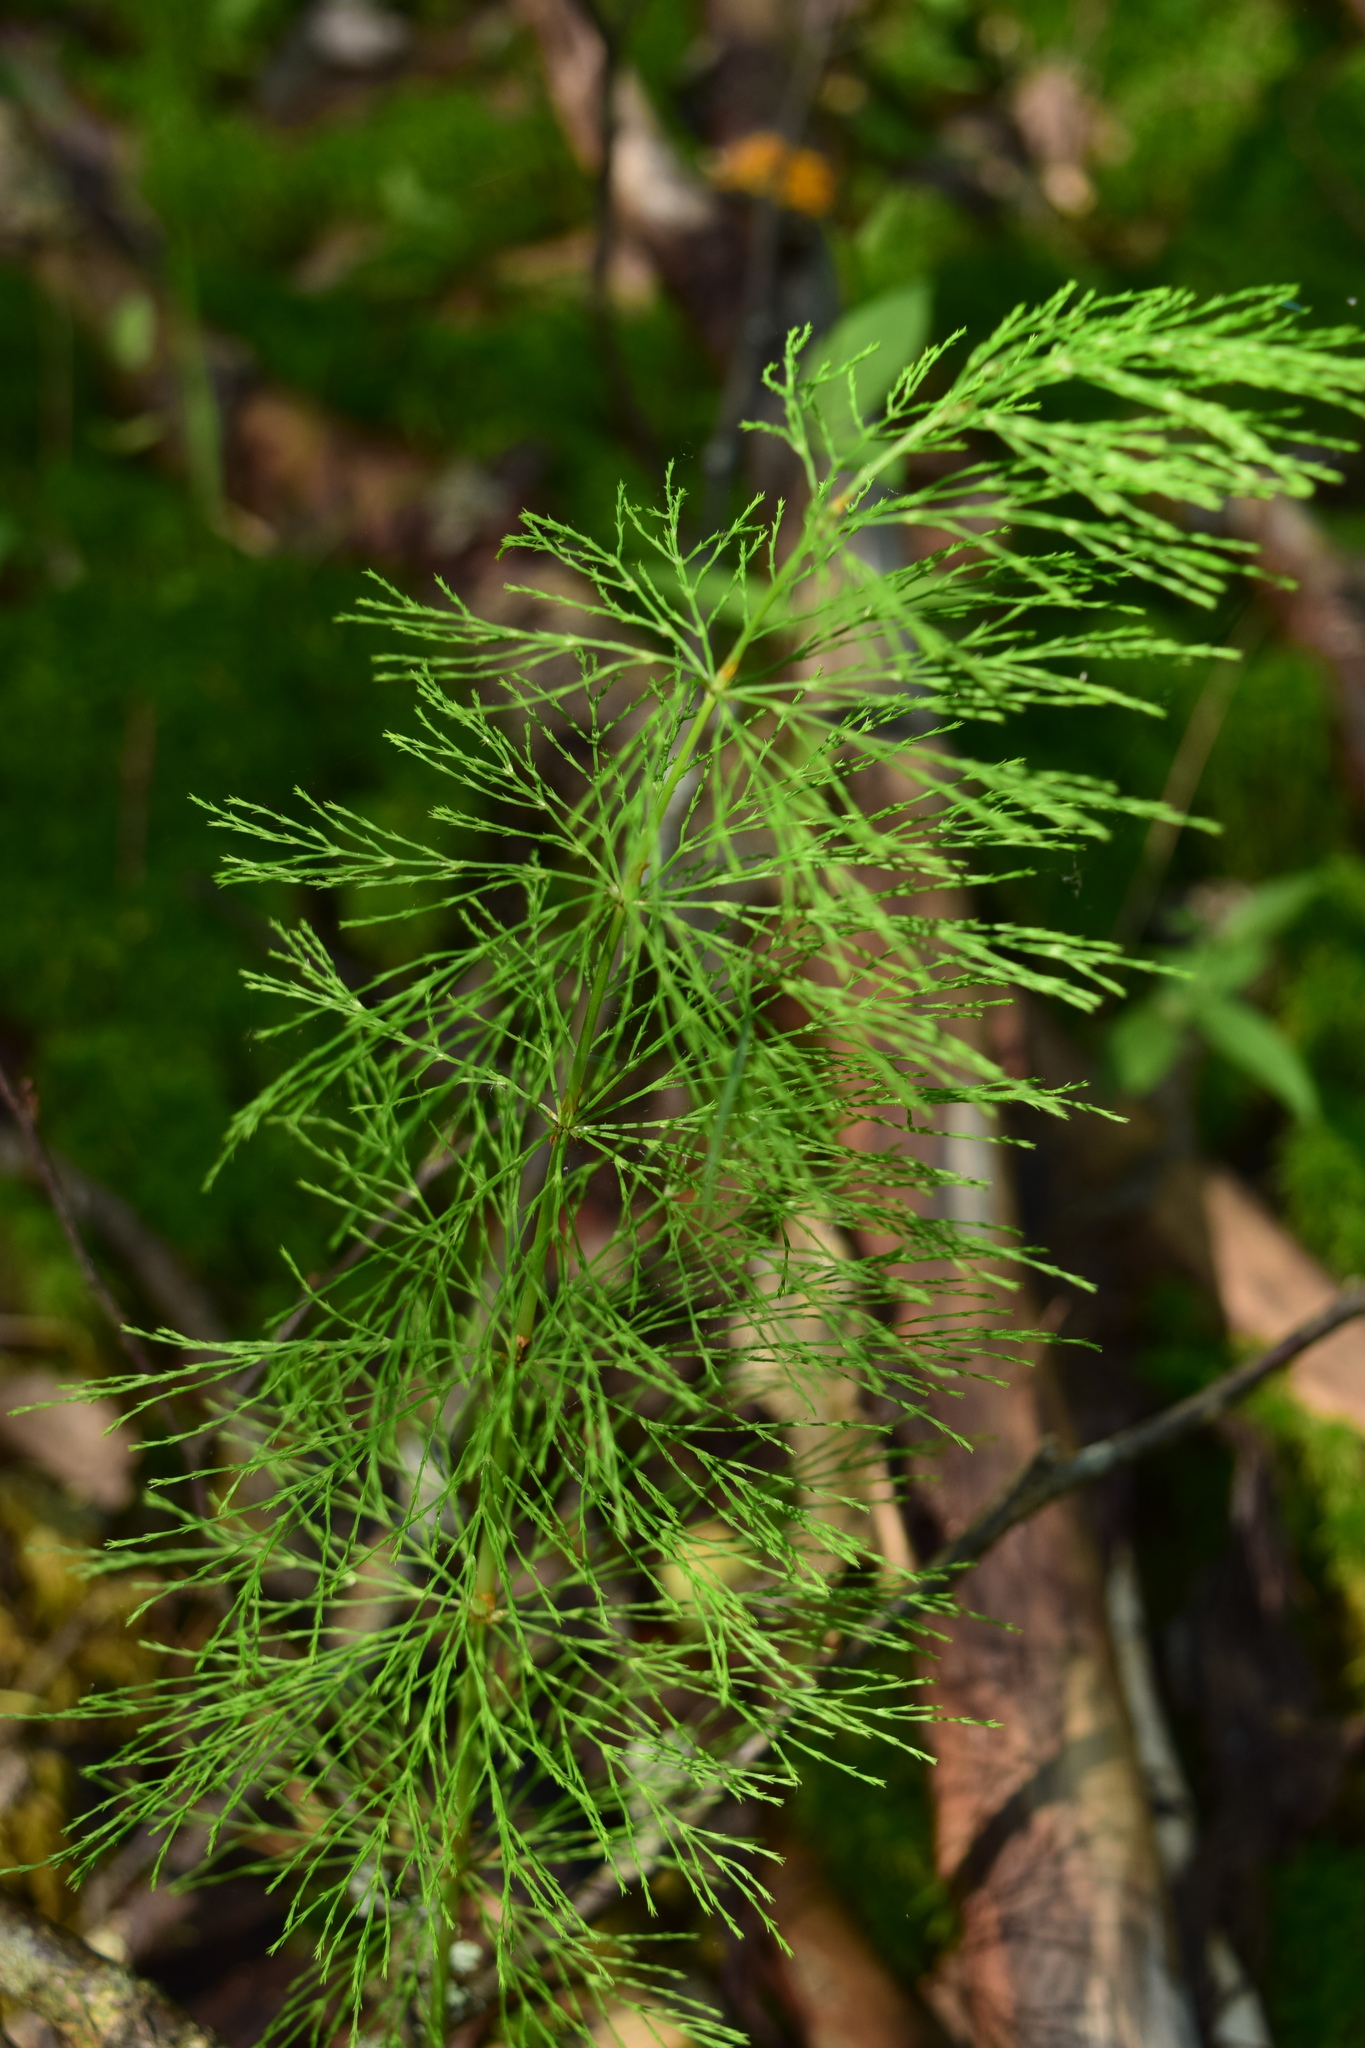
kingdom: Plantae
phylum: Tracheophyta
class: Polypodiopsida
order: Equisetales
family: Equisetaceae
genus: Equisetum
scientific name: Equisetum sylvaticum
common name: Wood horsetail
